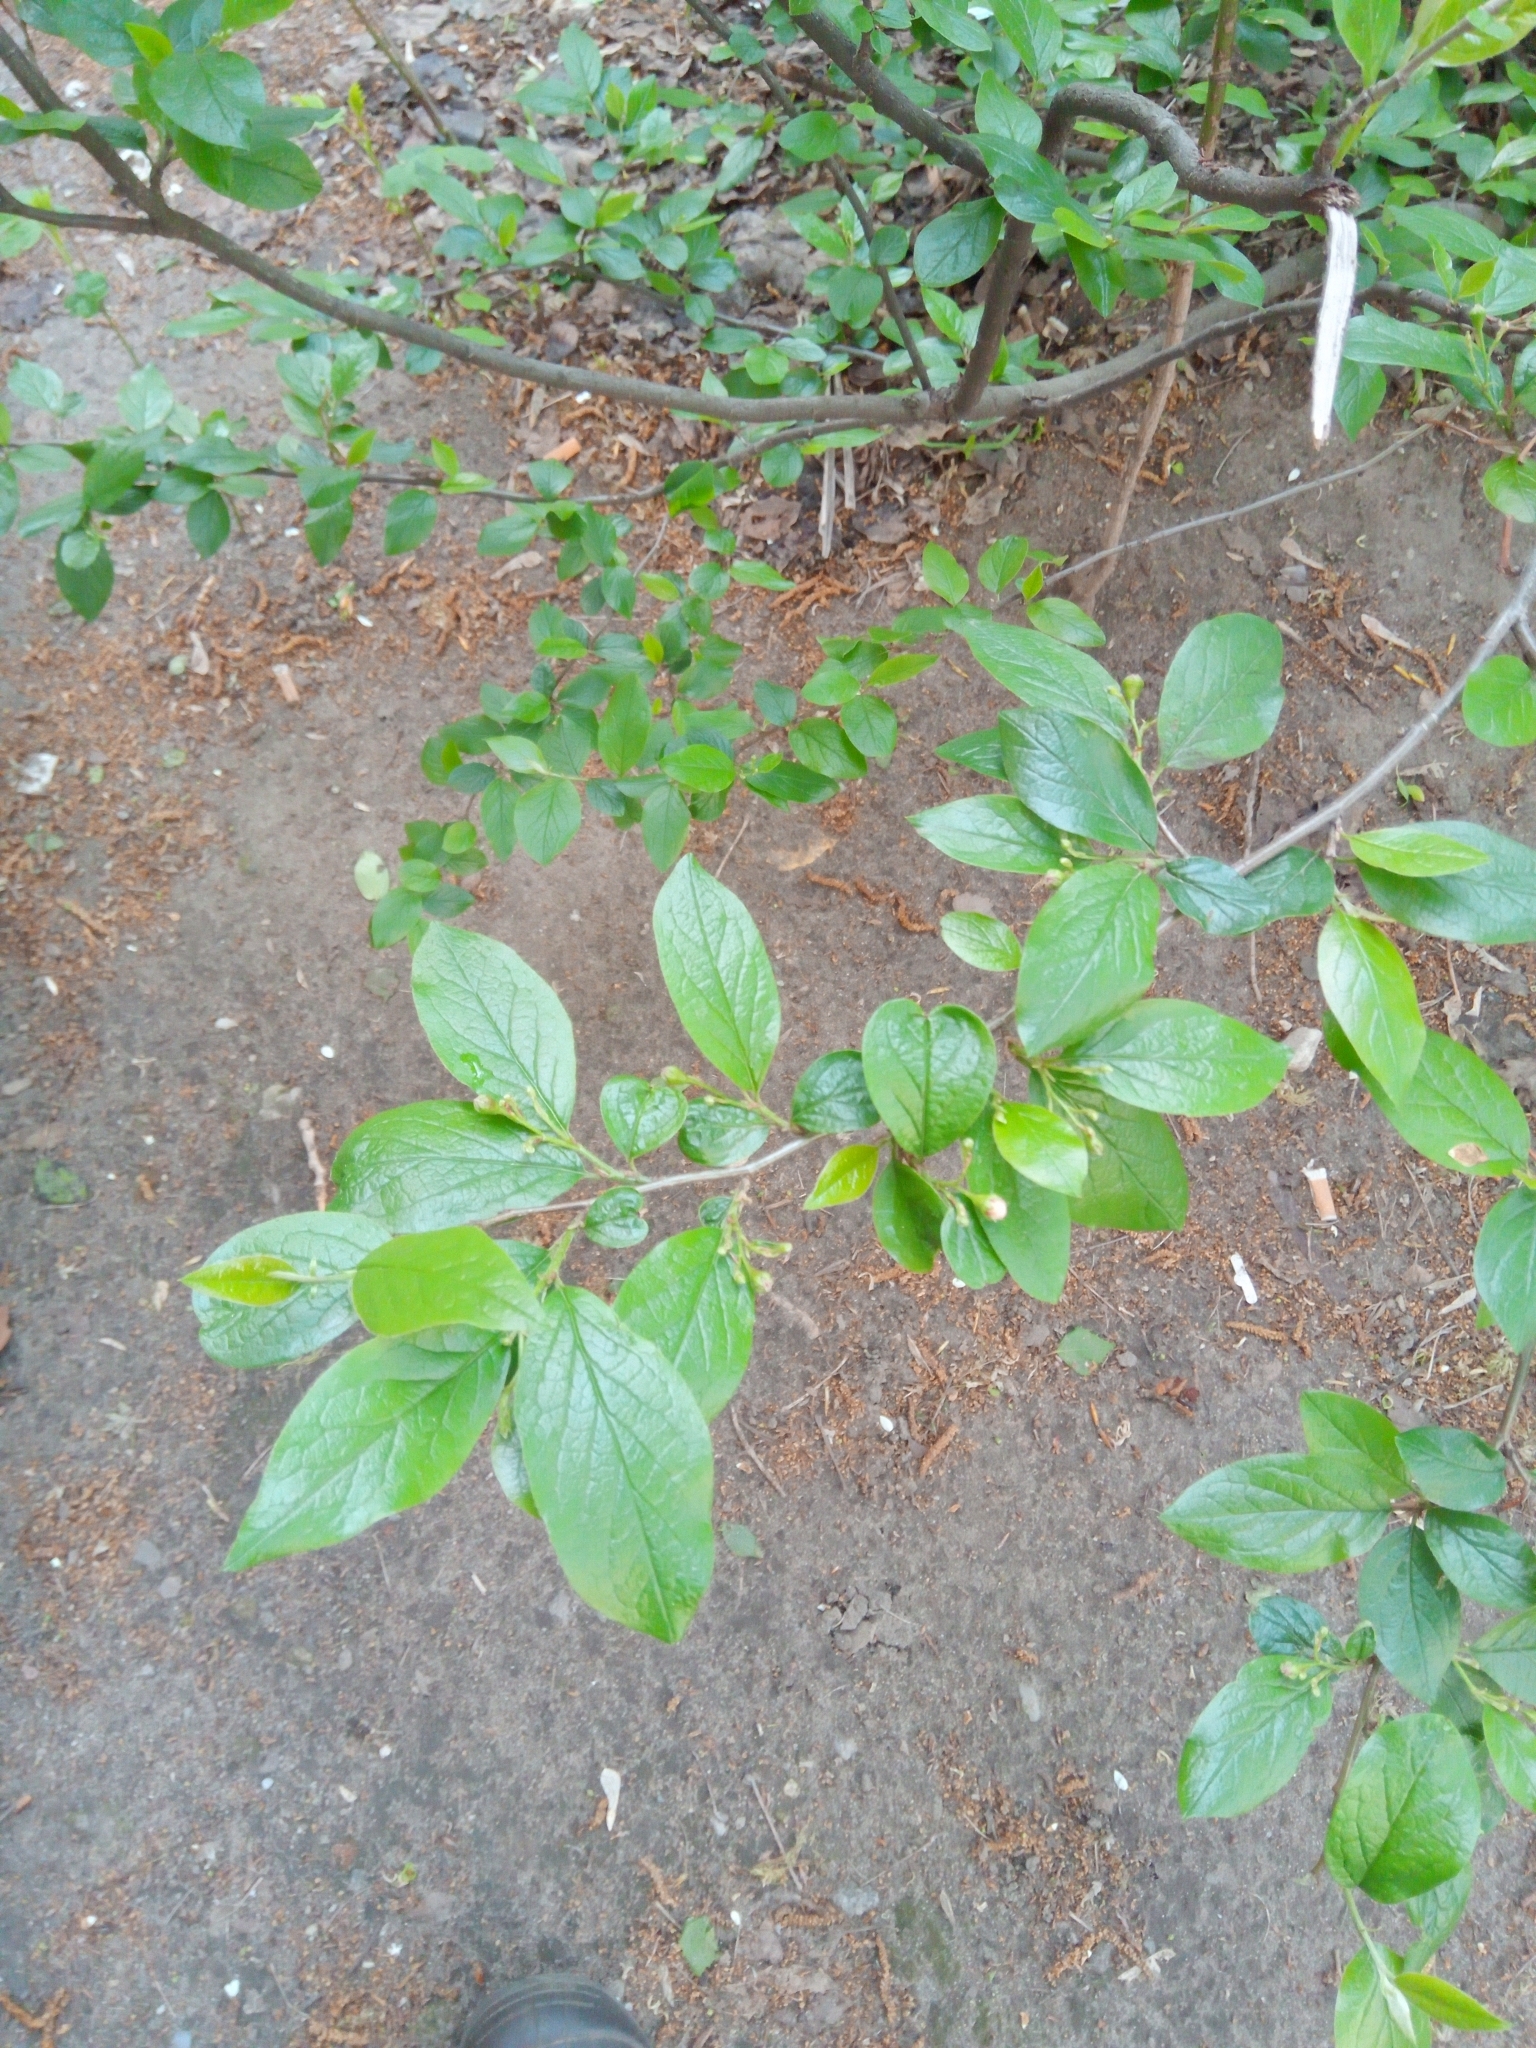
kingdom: Plantae
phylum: Tracheophyta
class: Magnoliopsida
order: Rosales
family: Rosaceae
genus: Cotoneaster
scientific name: Cotoneaster acutifolius
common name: Peking cotoneaster
